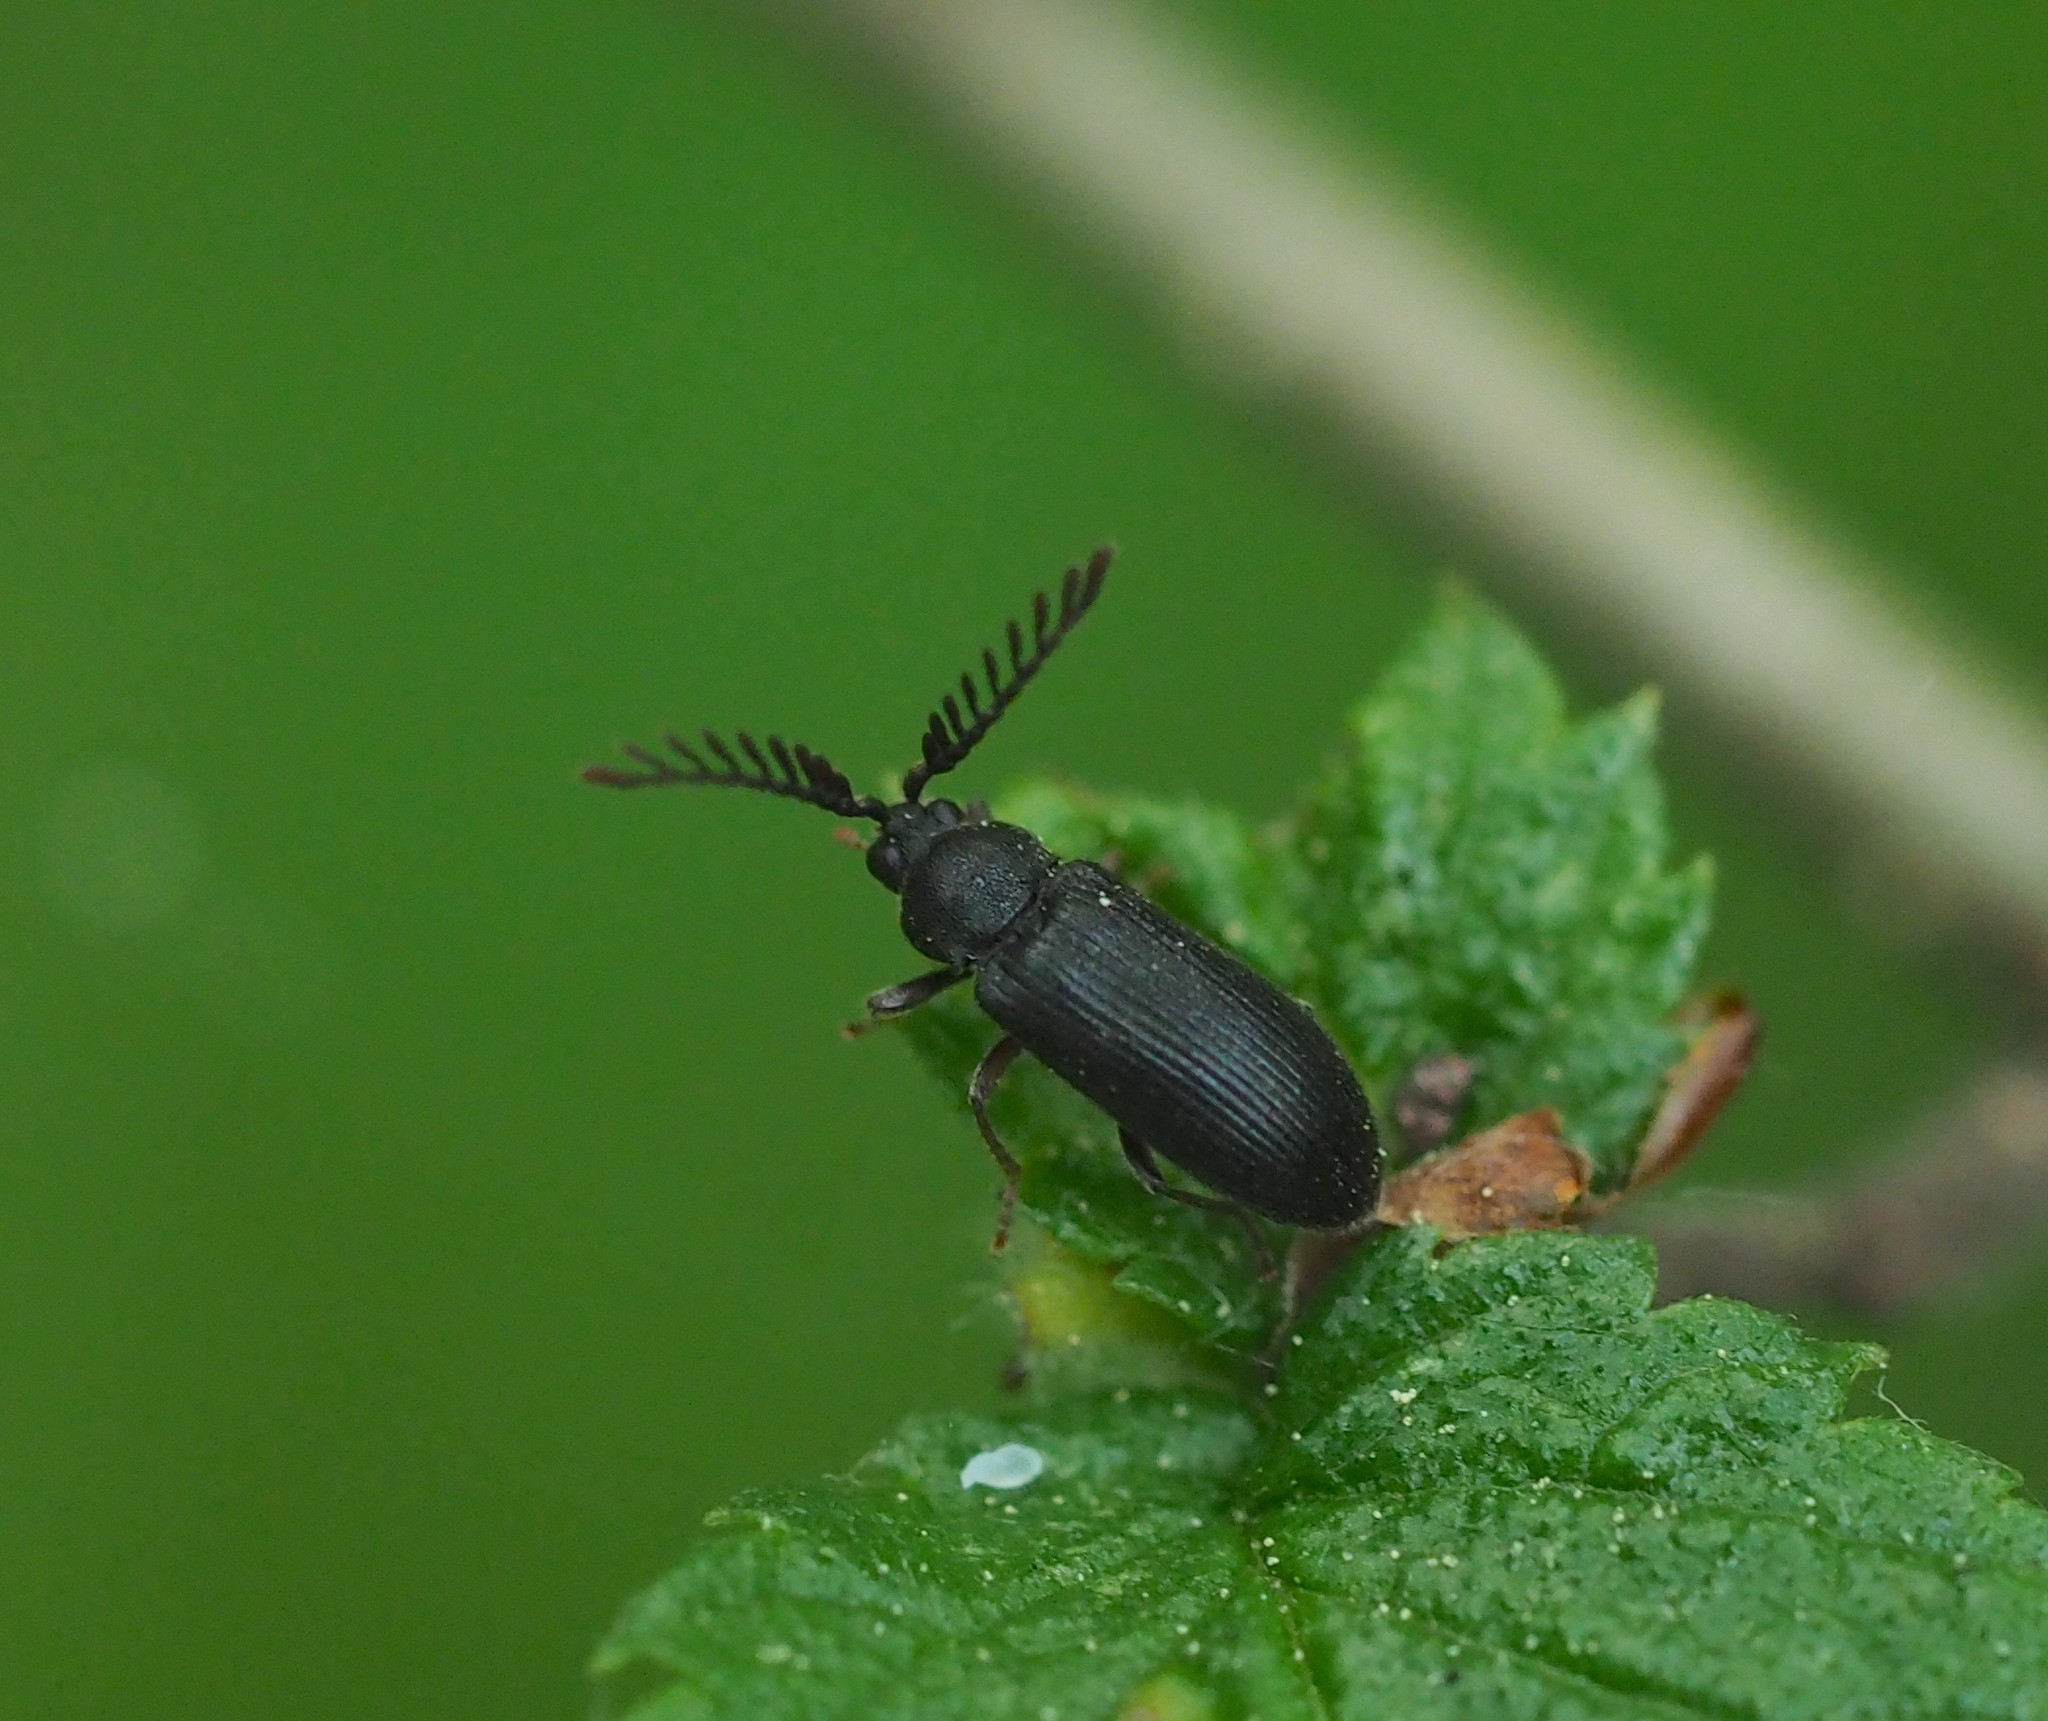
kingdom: Animalia
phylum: Arthropoda
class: Insecta
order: Coleoptera
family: Cerophytidae
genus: Cerophytum
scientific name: Cerophytum elateroides
